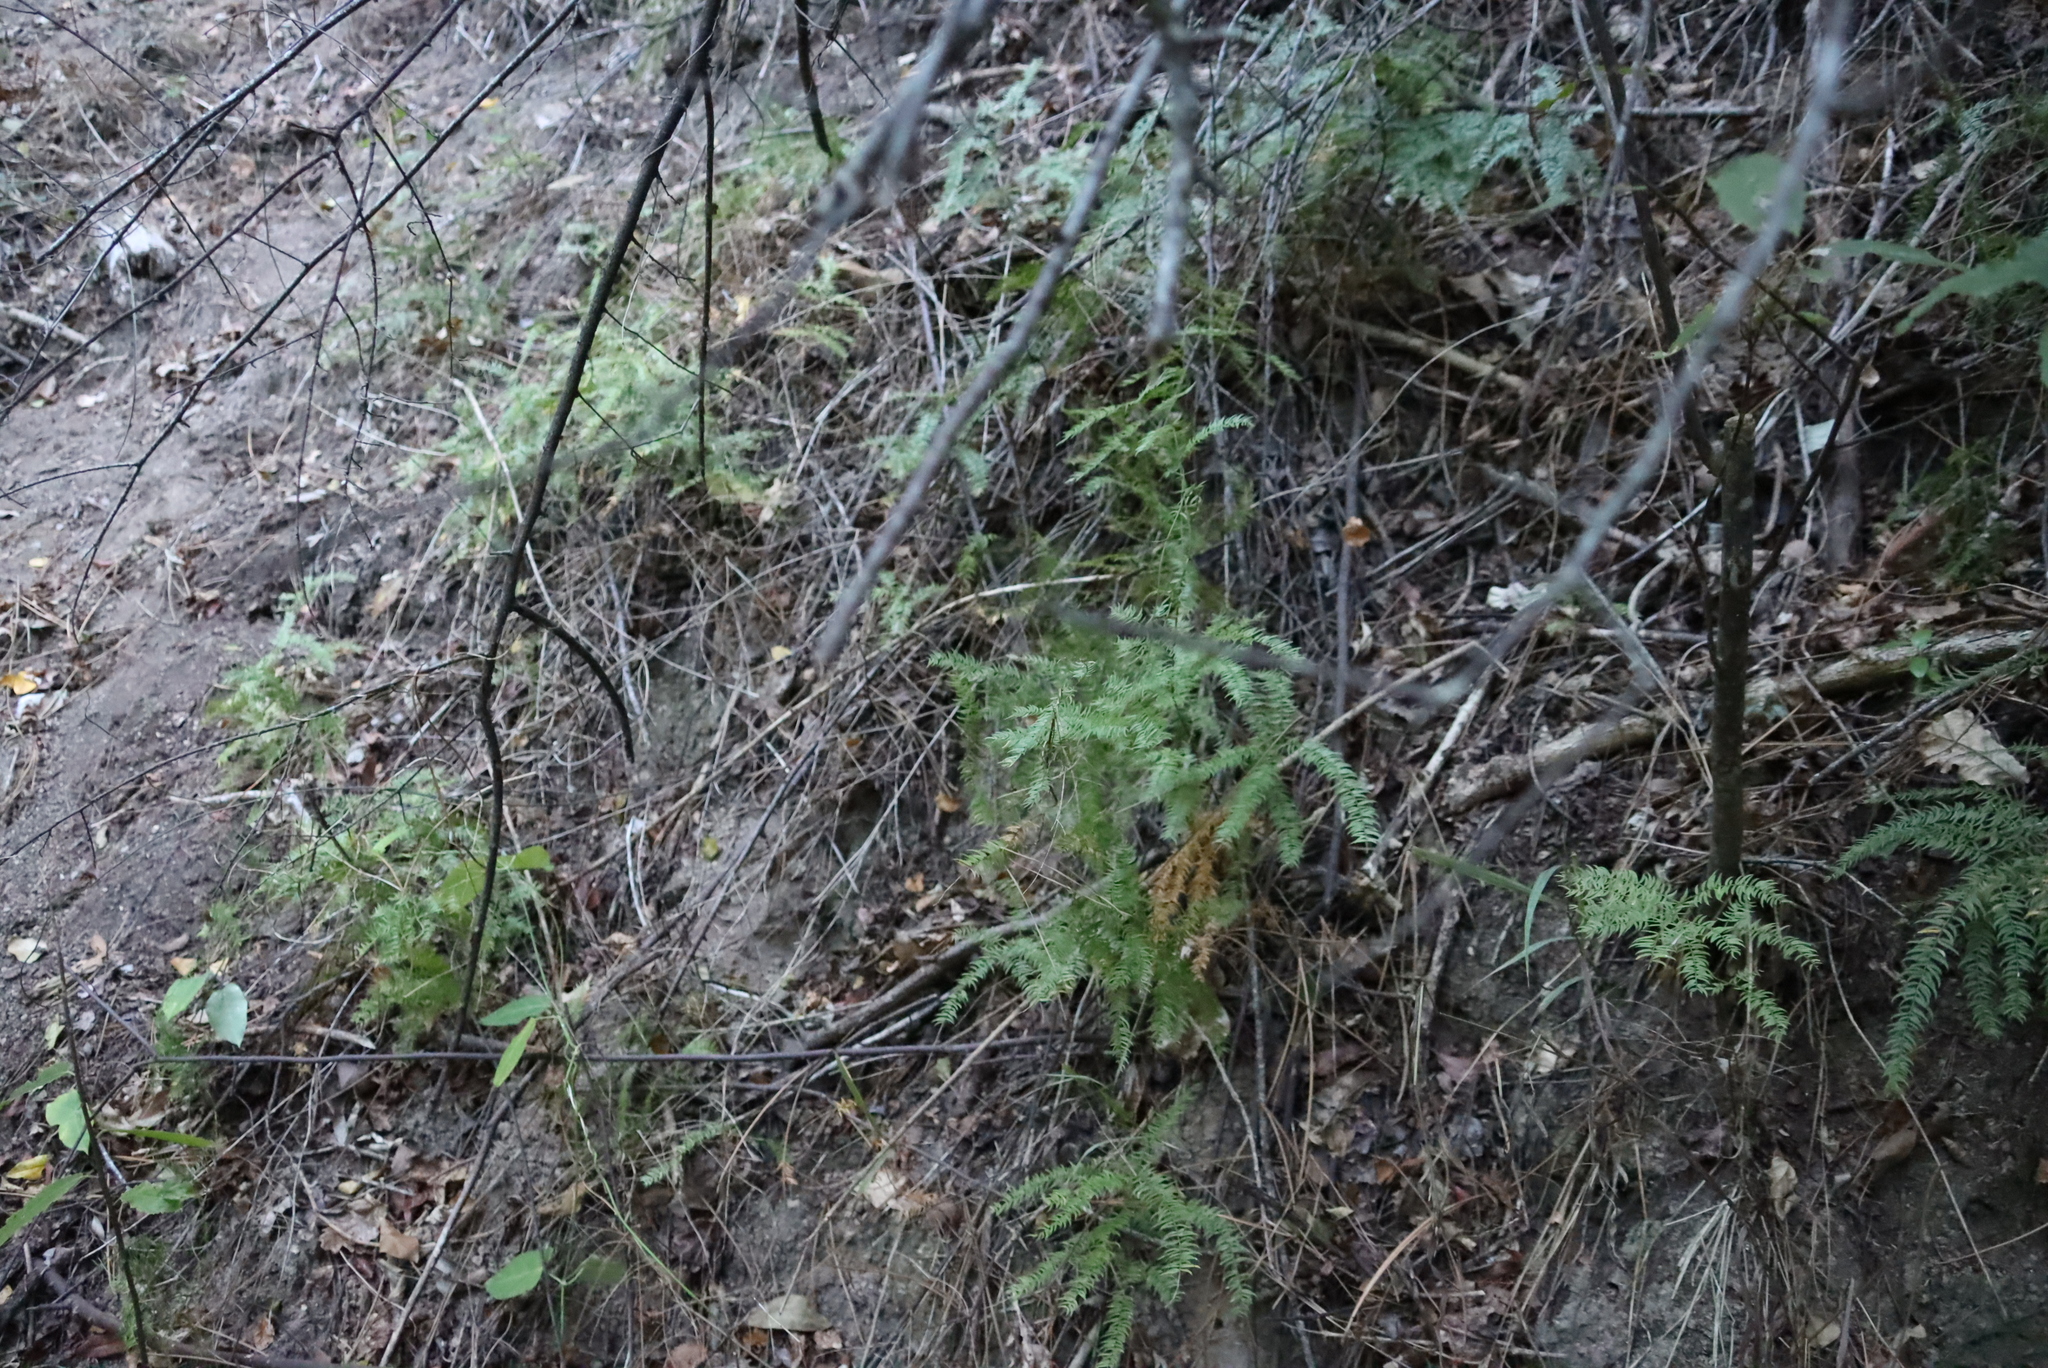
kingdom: Plantae
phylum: Tracheophyta
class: Liliopsida
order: Asparagales
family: Asparagaceae
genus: Asparagus
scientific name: Asparagus scandens
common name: Asparagus-fern
